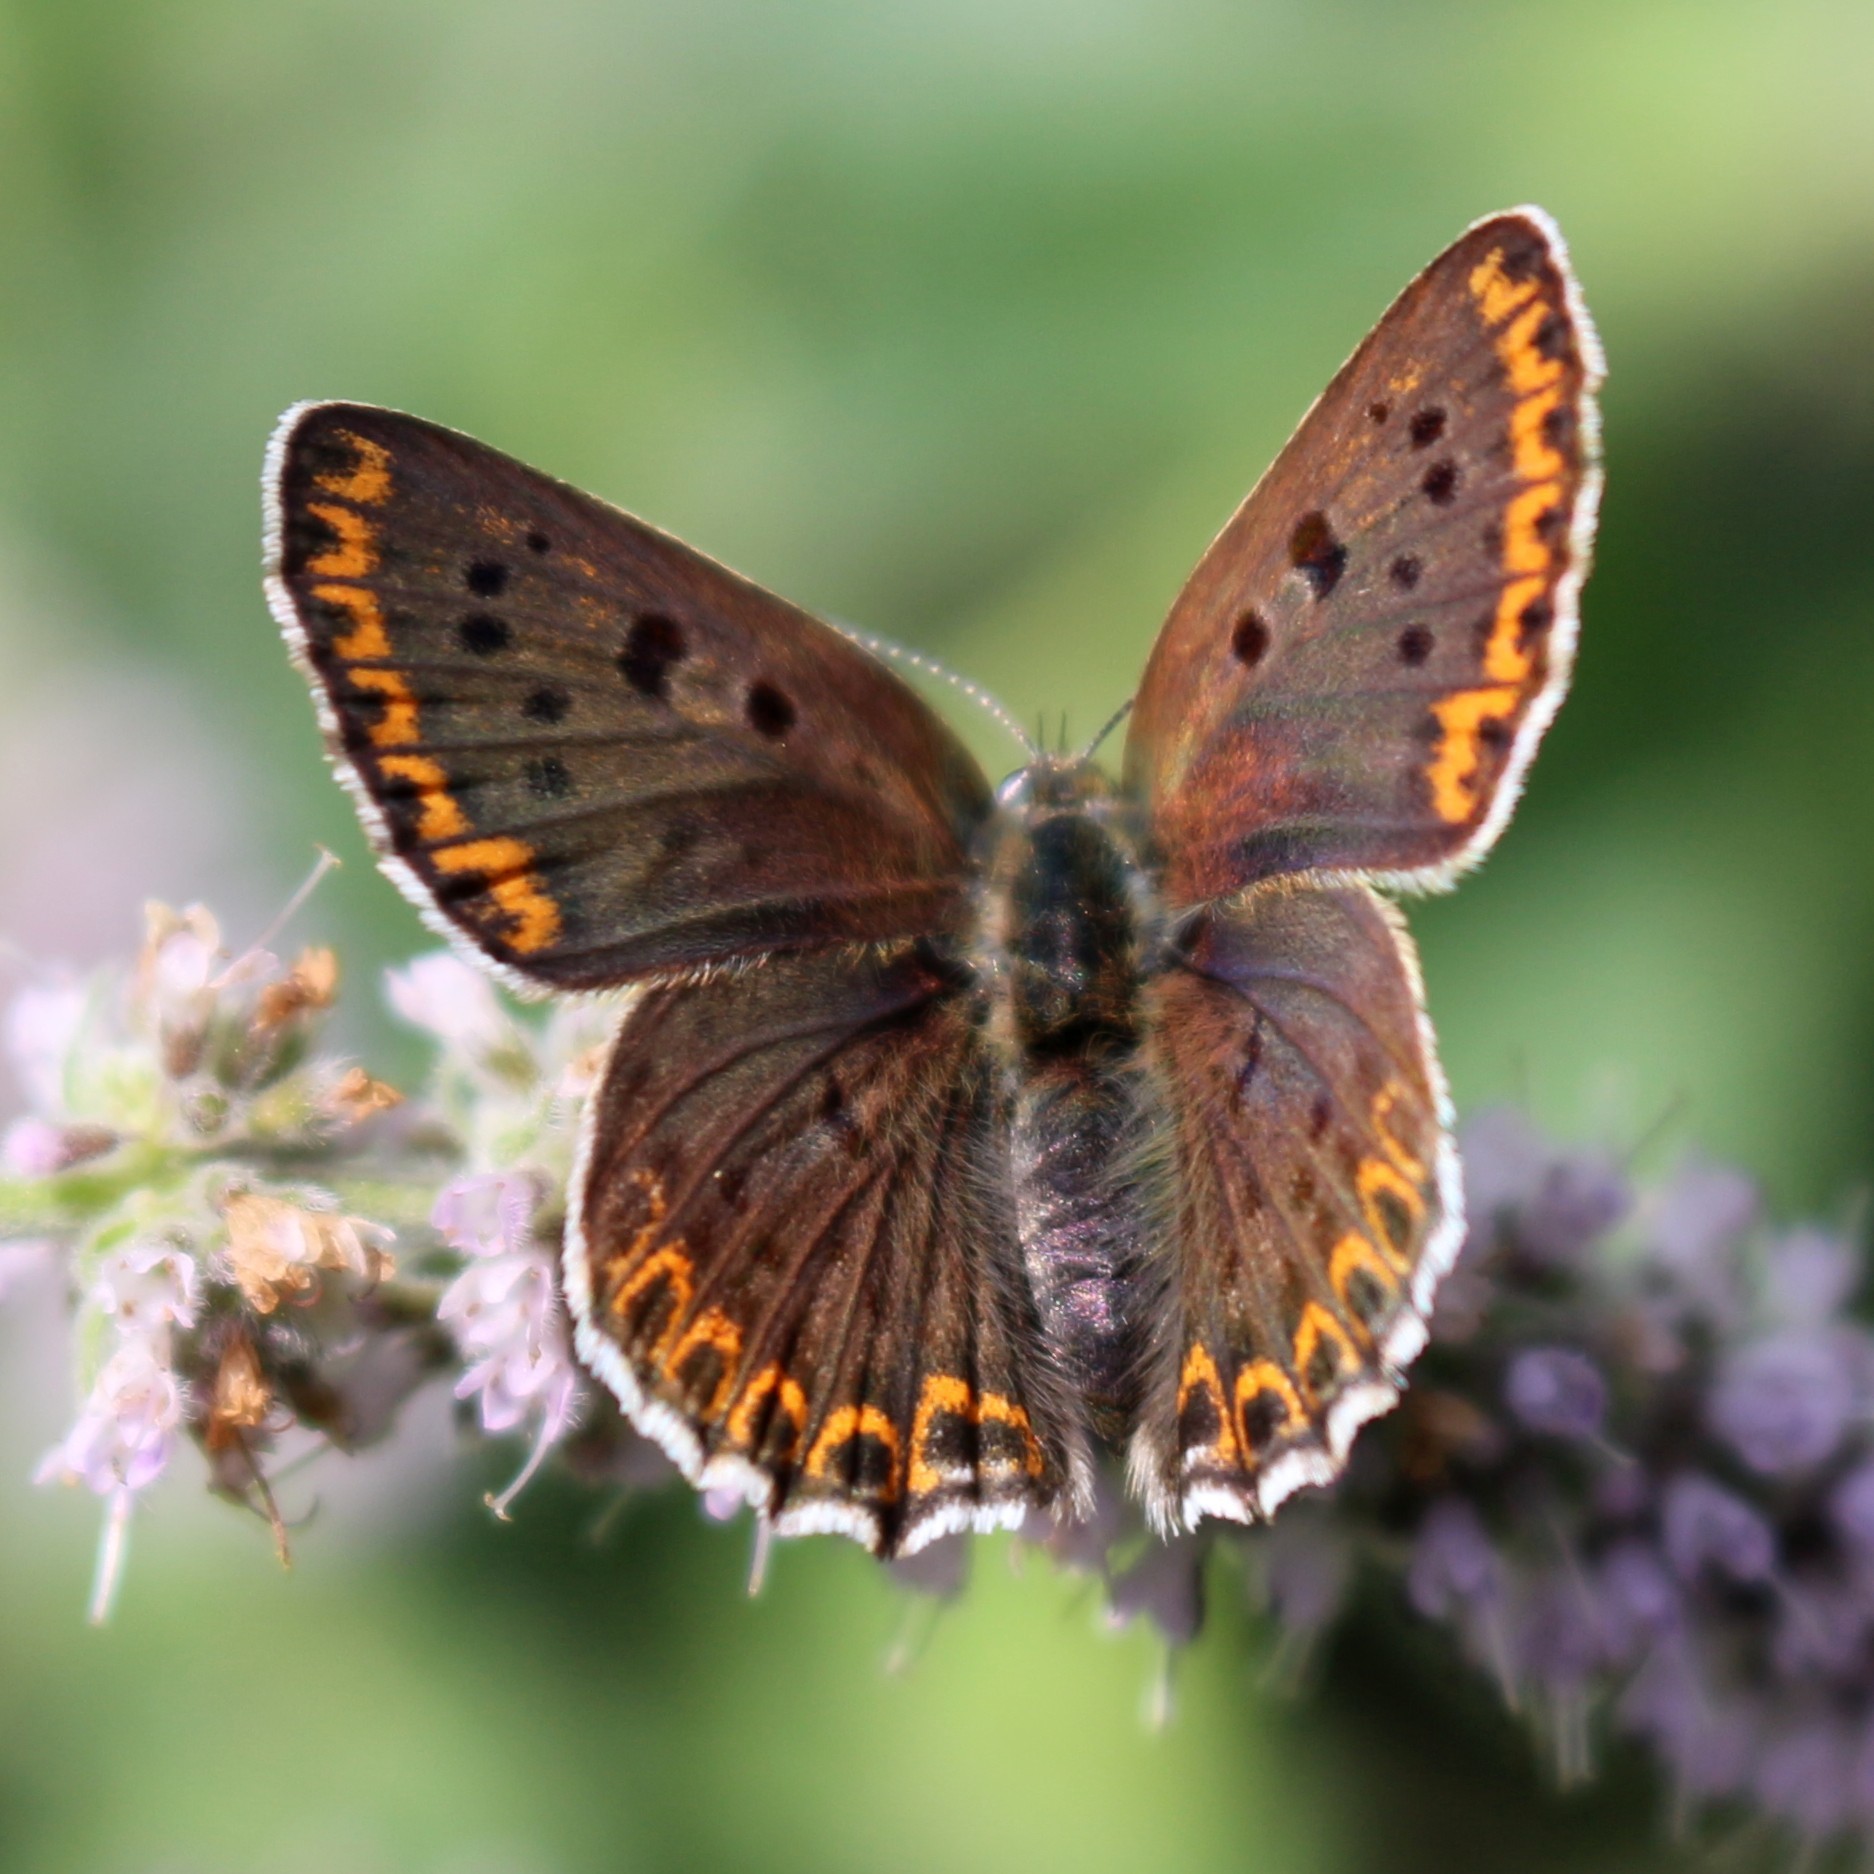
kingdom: Animalia
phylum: Arthropoda
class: Insecta
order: Lepidoptera
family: Lycaenidae
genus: Loweia
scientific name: Loweia tityrus
